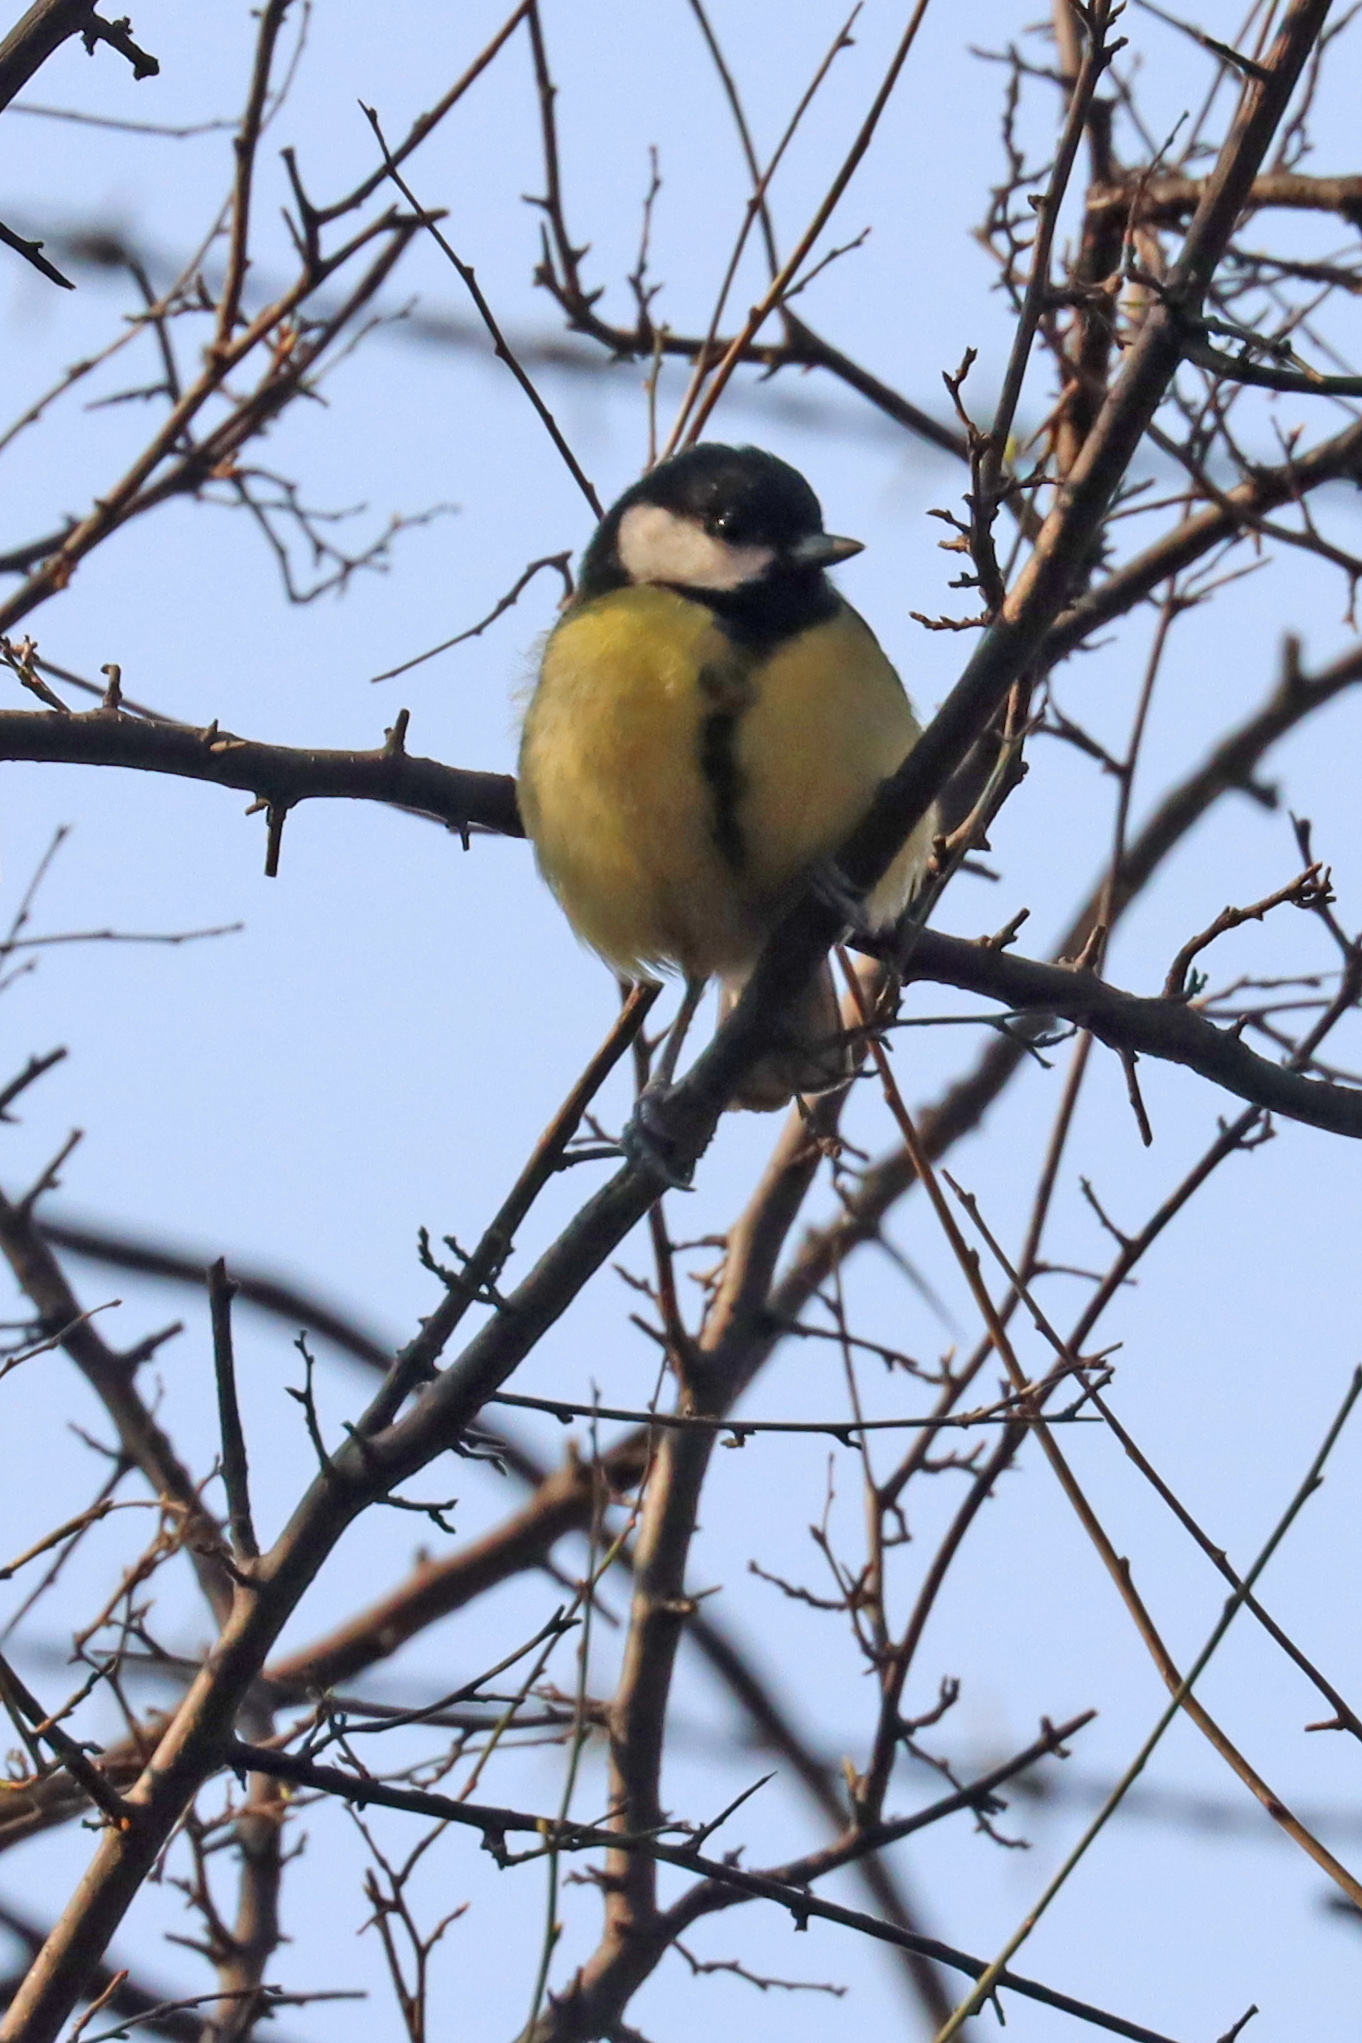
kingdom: Animalia
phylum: Chordata
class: Aves
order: Passeriformes
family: Paridae
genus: Parus
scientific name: Parus major
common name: Great tit
